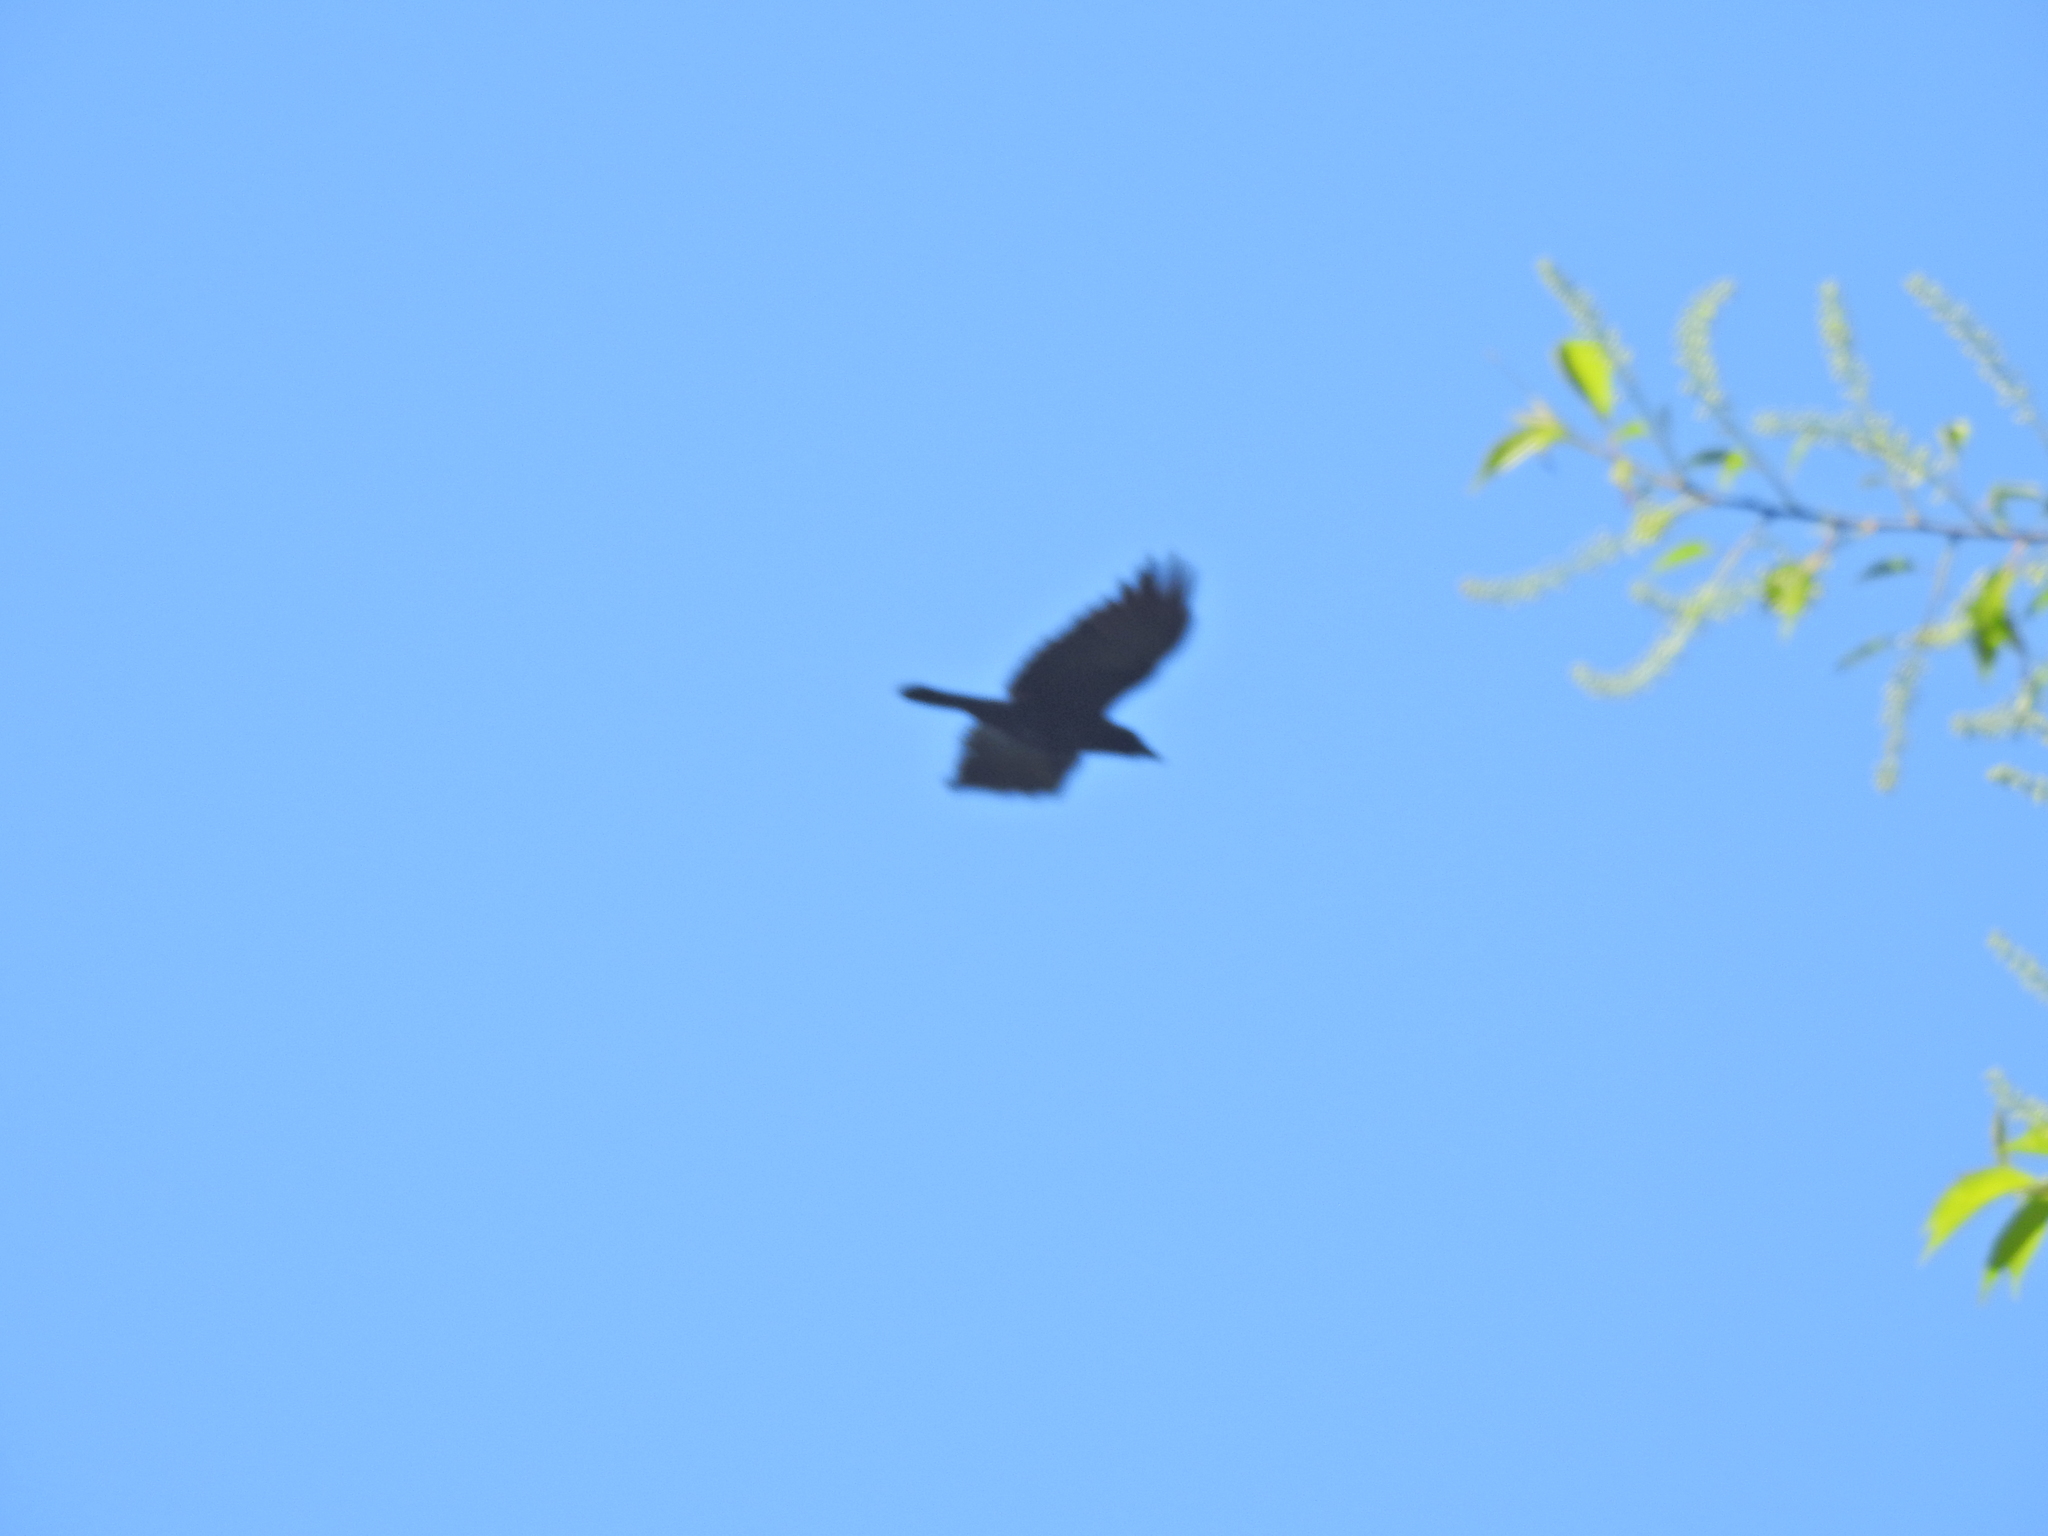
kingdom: Animalia
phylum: Chordata
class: Aves
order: Passeriformes
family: Corvidae
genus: Corvus
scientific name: Corvus
